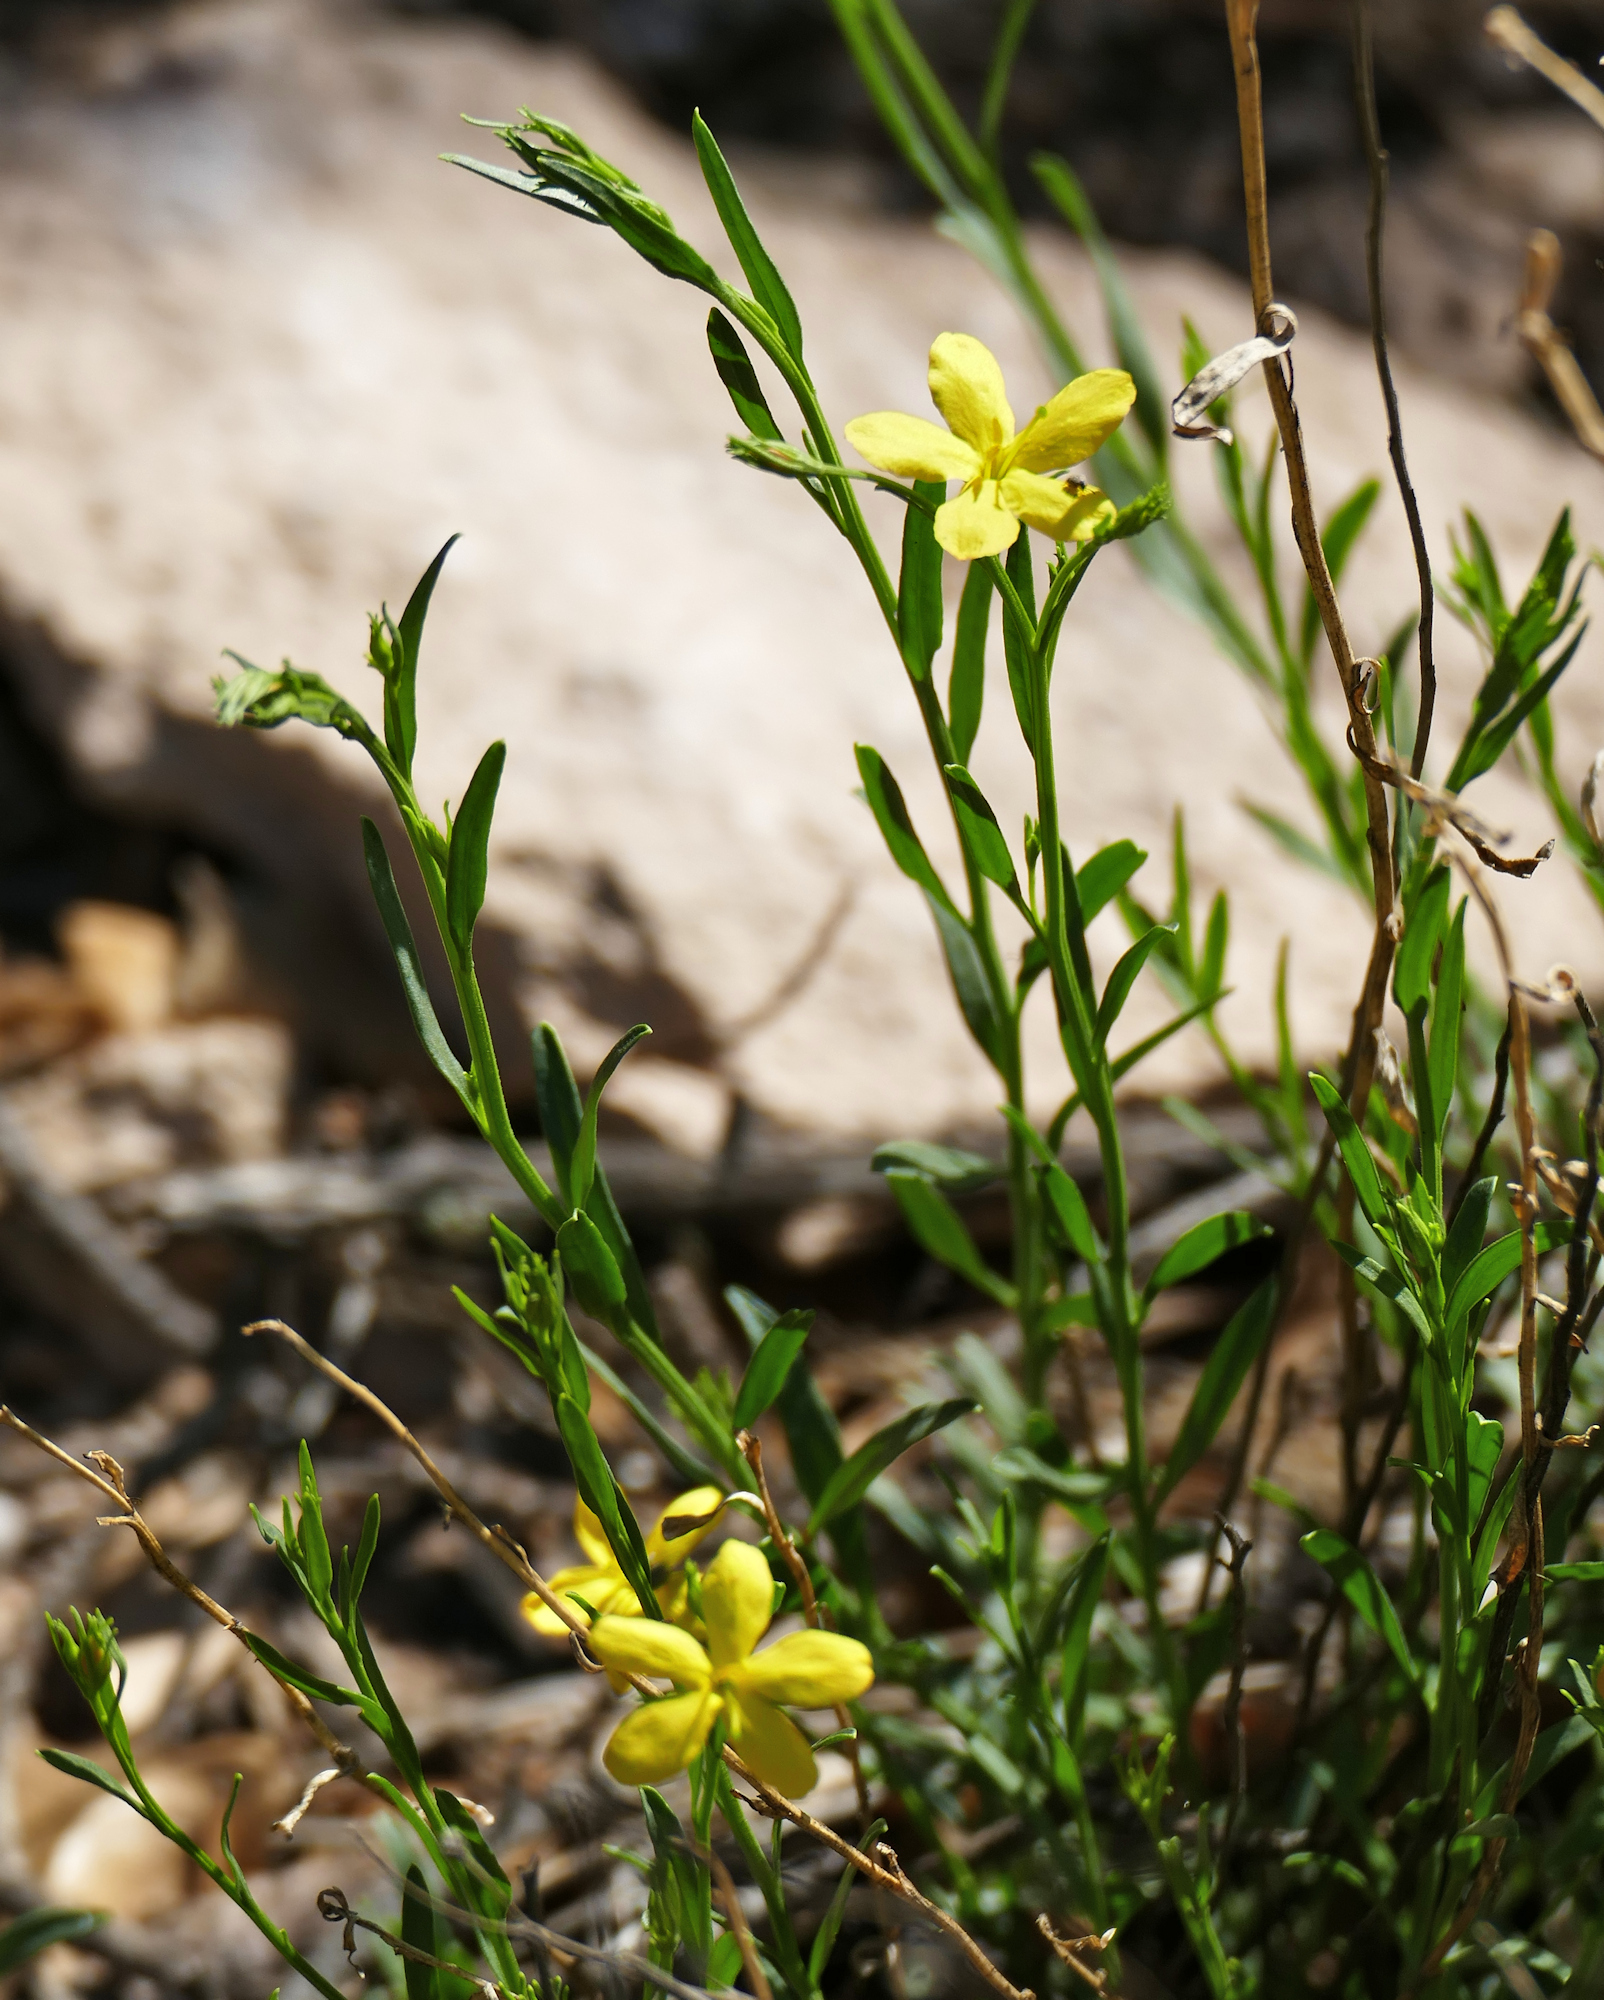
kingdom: Plantae
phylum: Tracheophyta
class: Magnoliopsida
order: Lamiales
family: Oleaceae
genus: Menodora
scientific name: Menodora scabra
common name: Rough menodora
